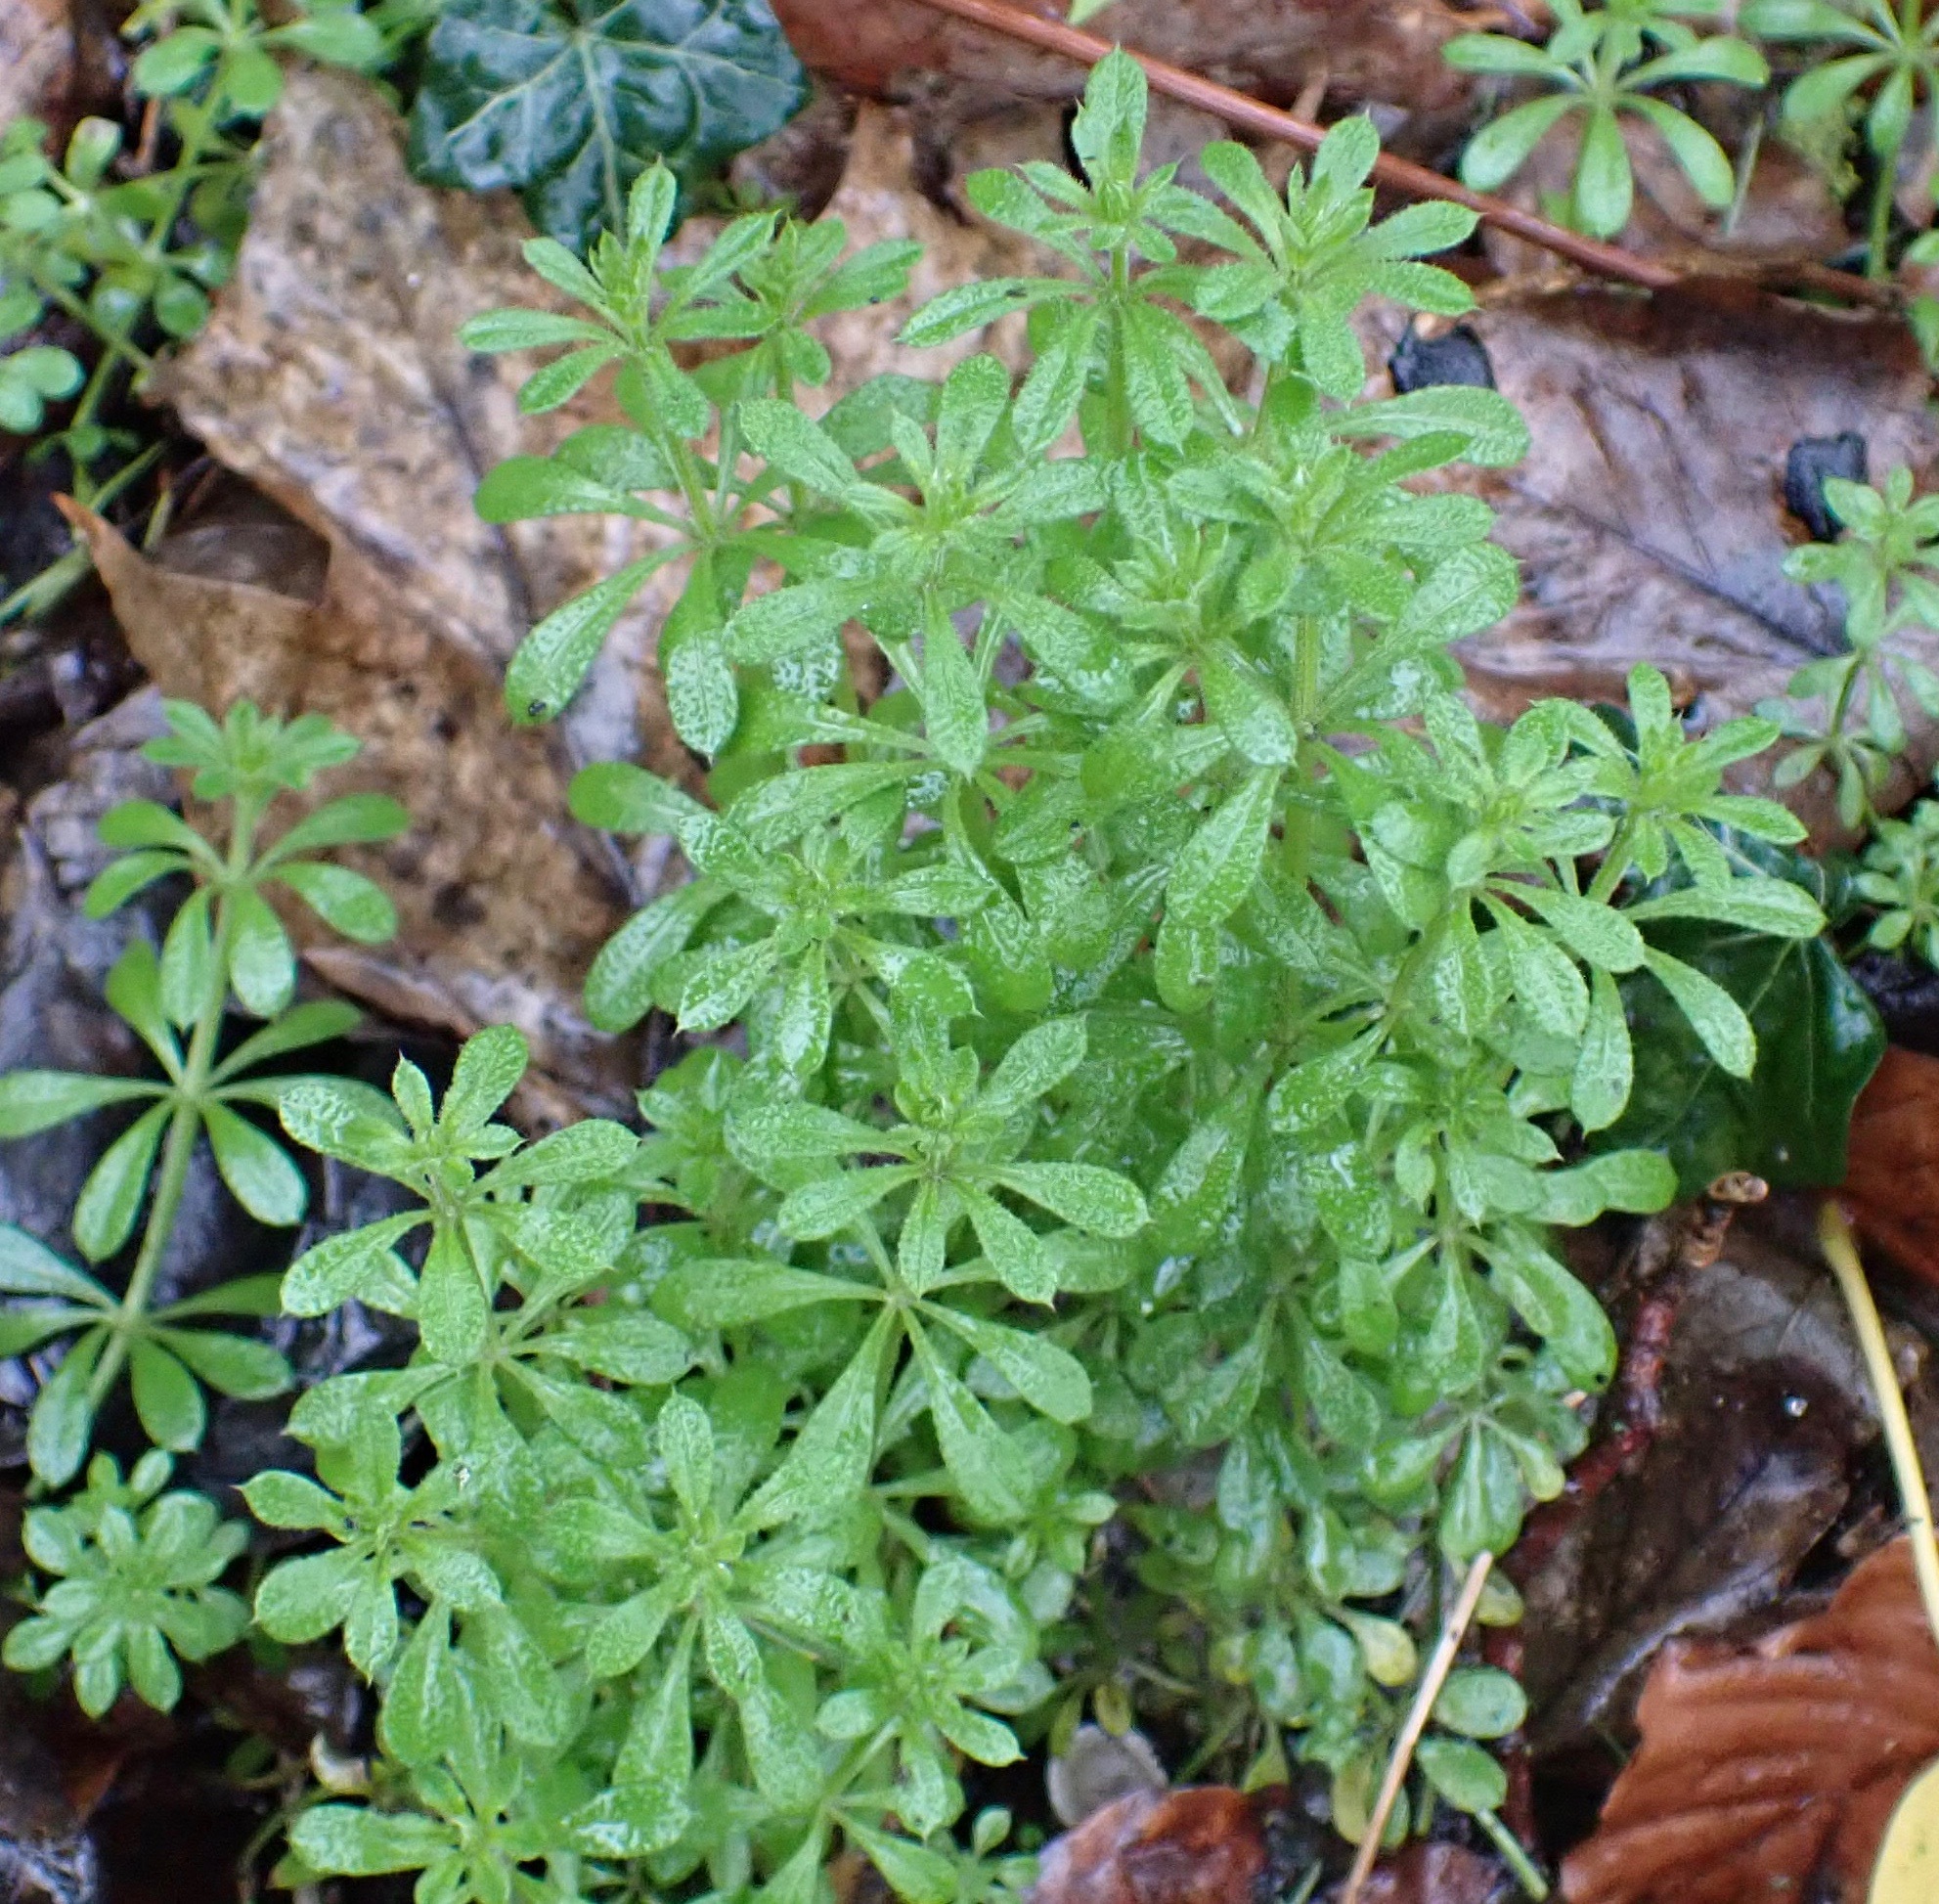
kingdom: Plantae
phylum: Tracheophyta
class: Magnoliopsida
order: Gentianales
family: Rubiaceae
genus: Galium
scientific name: Galium aparine
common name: Cleavers
